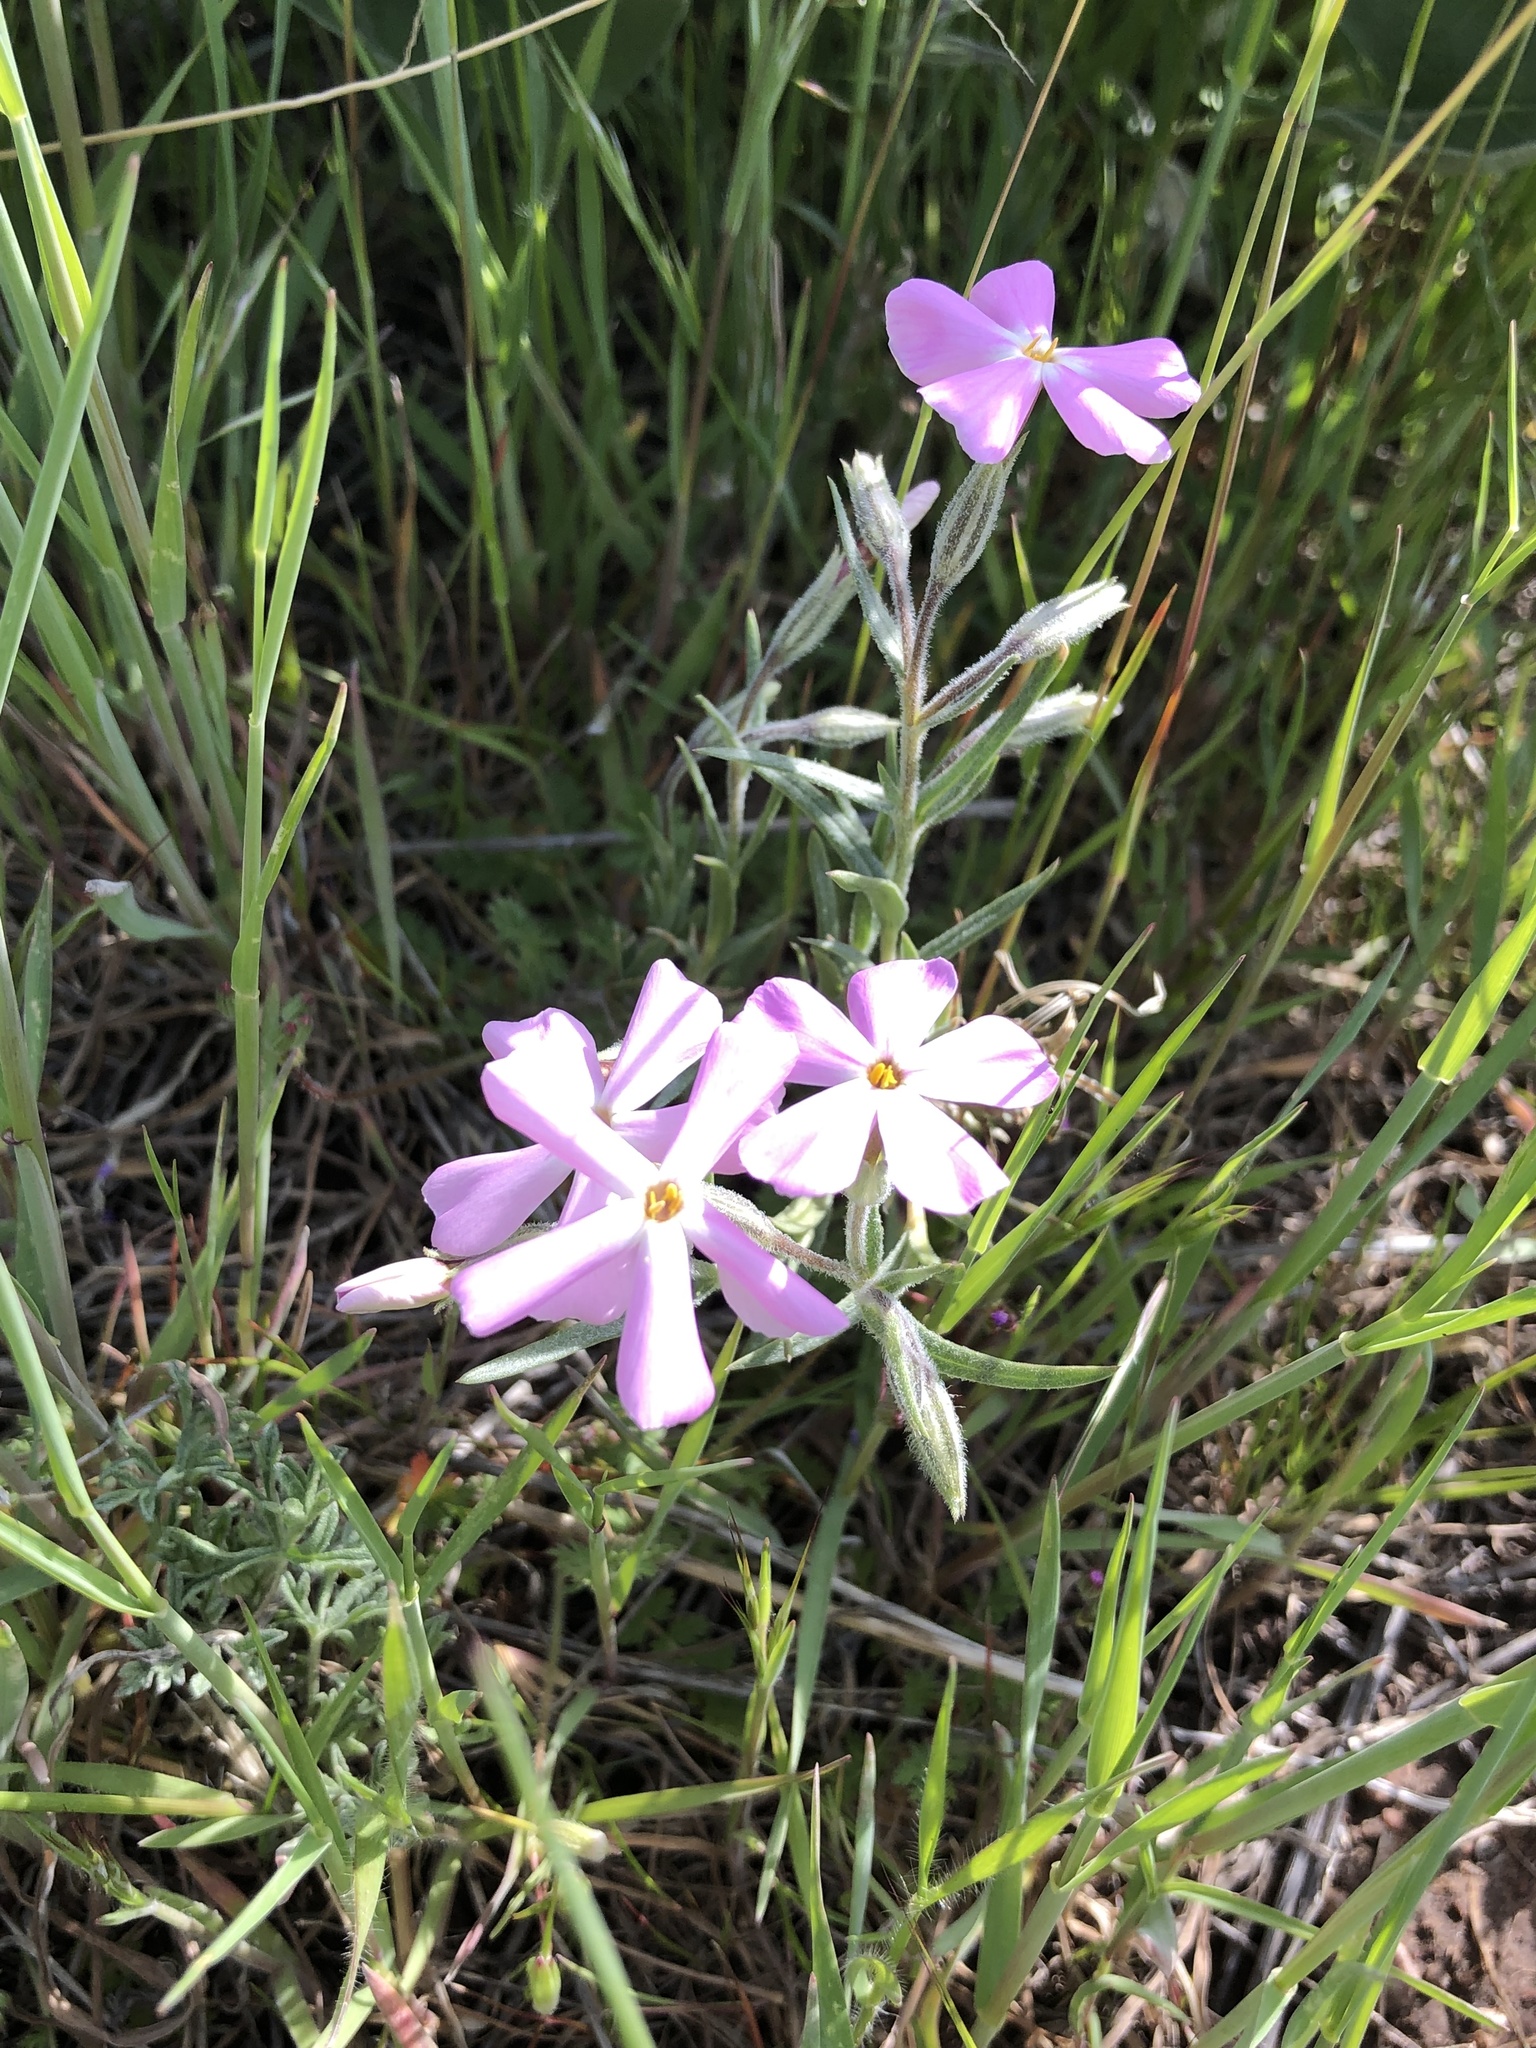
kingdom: Plantae
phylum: Tracheophyta
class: Magnoliopsida
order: Ericales
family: Polemoniaceae
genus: Phlox
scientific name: Phlox longifolia
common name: Longleaf phlox
